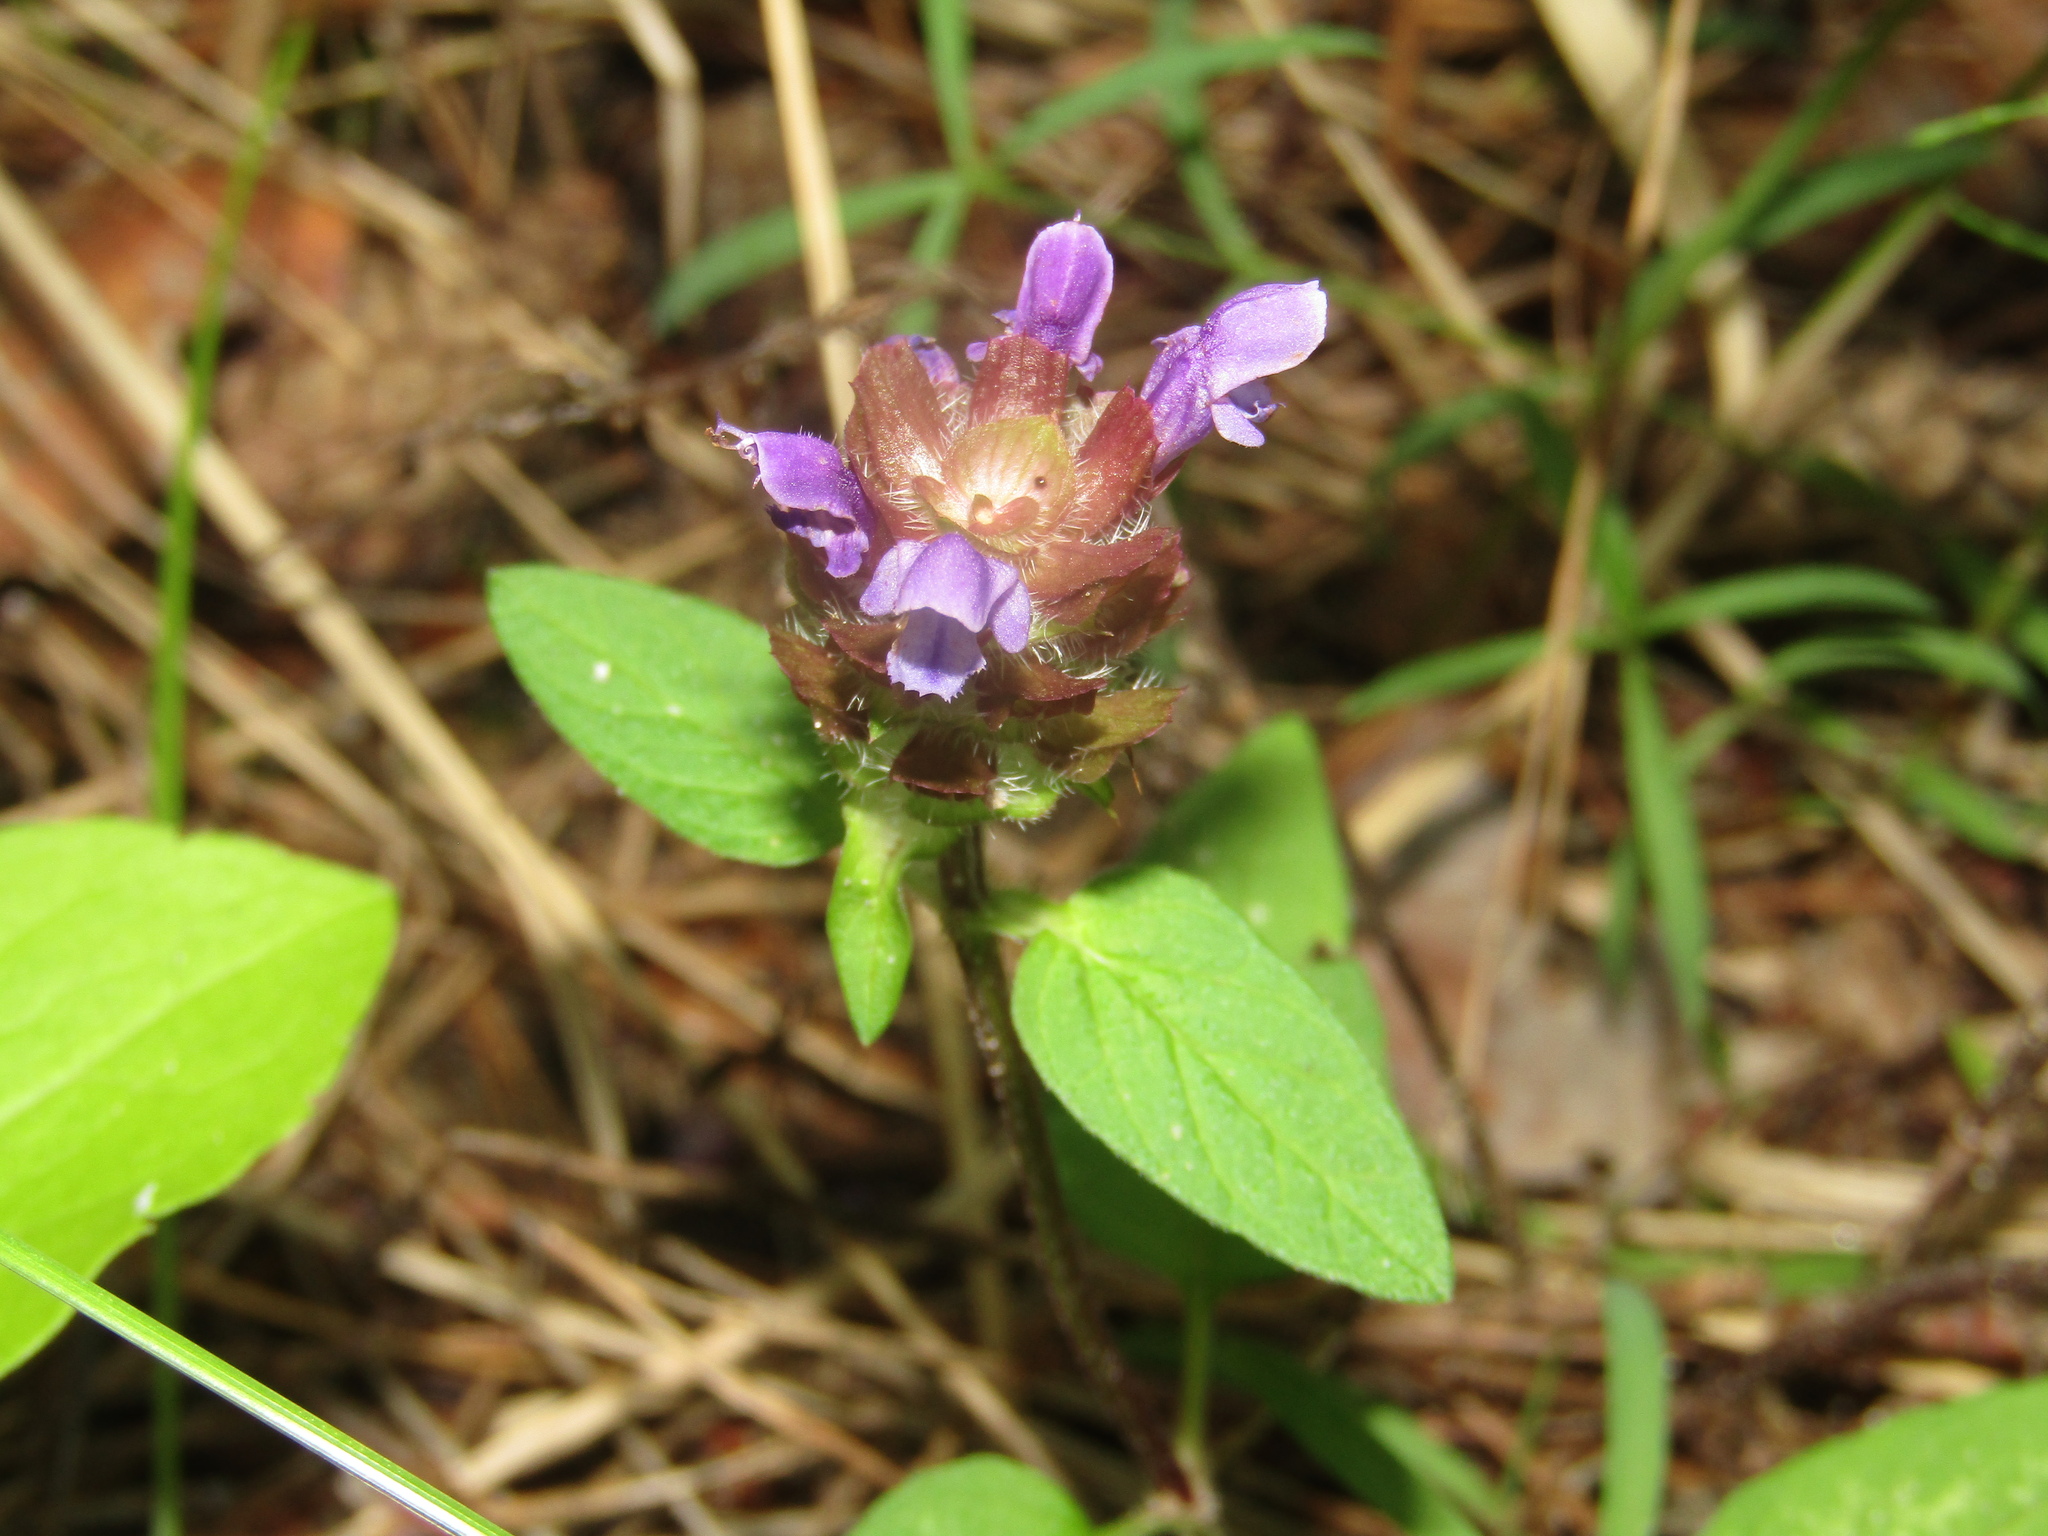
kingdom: Plantae
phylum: Tracheophyta
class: Magnoliopsida
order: Lamiales
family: Lamiaceae
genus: Prunella
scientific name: Prunella vulgaris
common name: Heal-all
